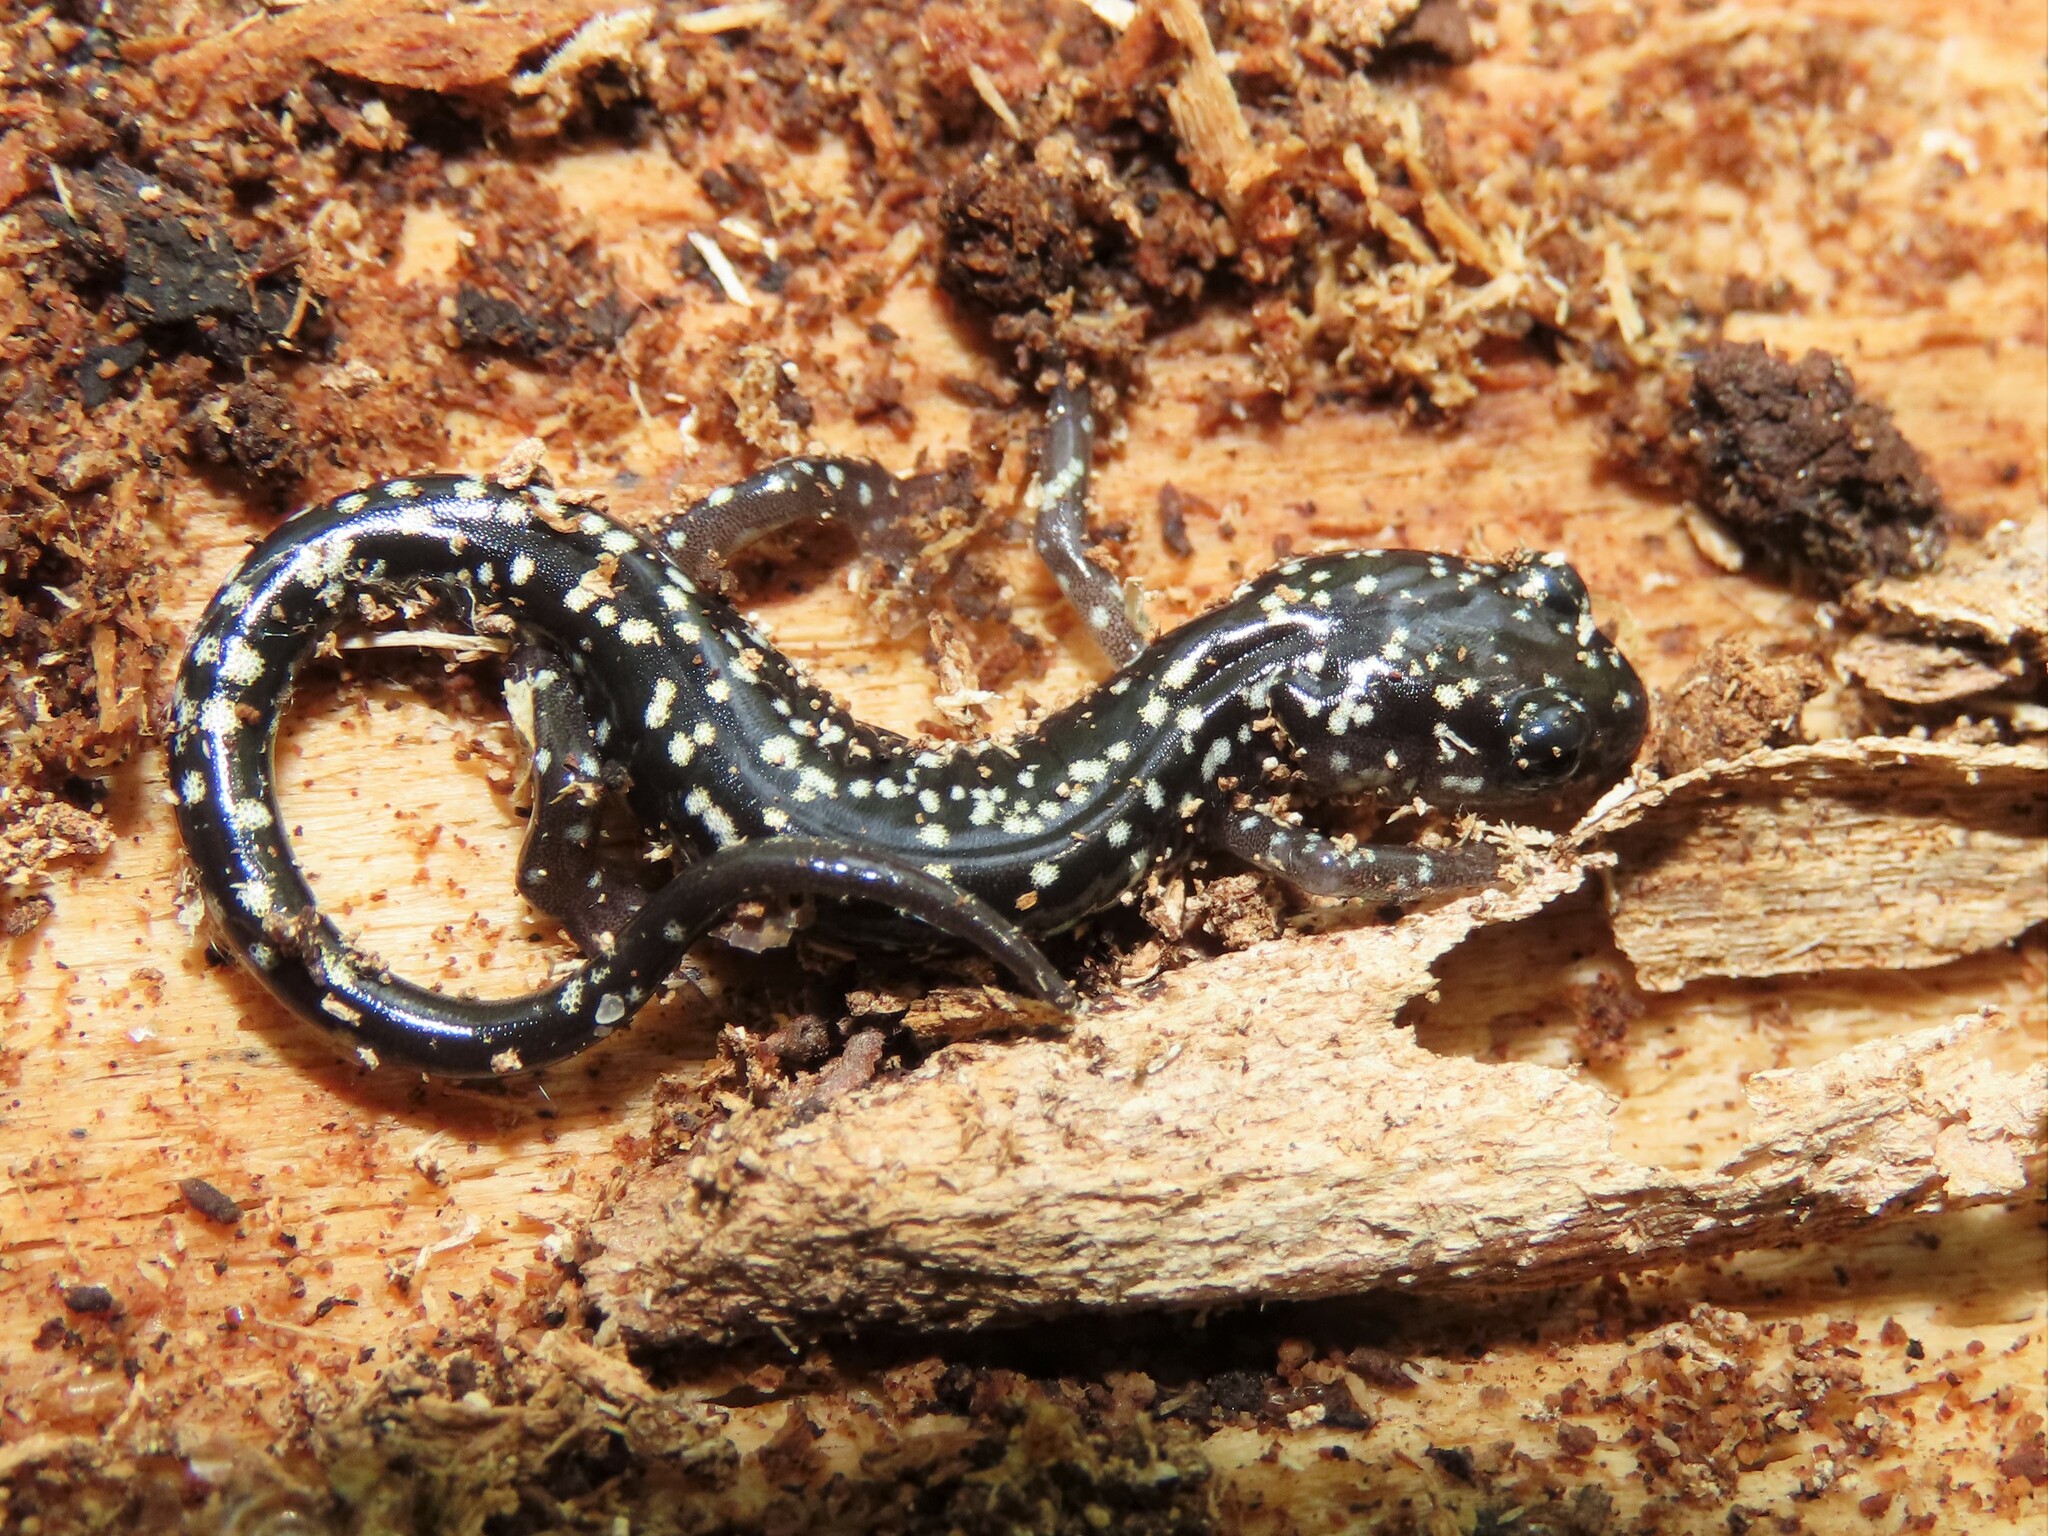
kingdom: Animalia
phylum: Chordata
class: Amphibia
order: Caudata
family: Plethodontidae
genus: Plethodon
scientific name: Plethodon glutinosus
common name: Northern slimy salamander
